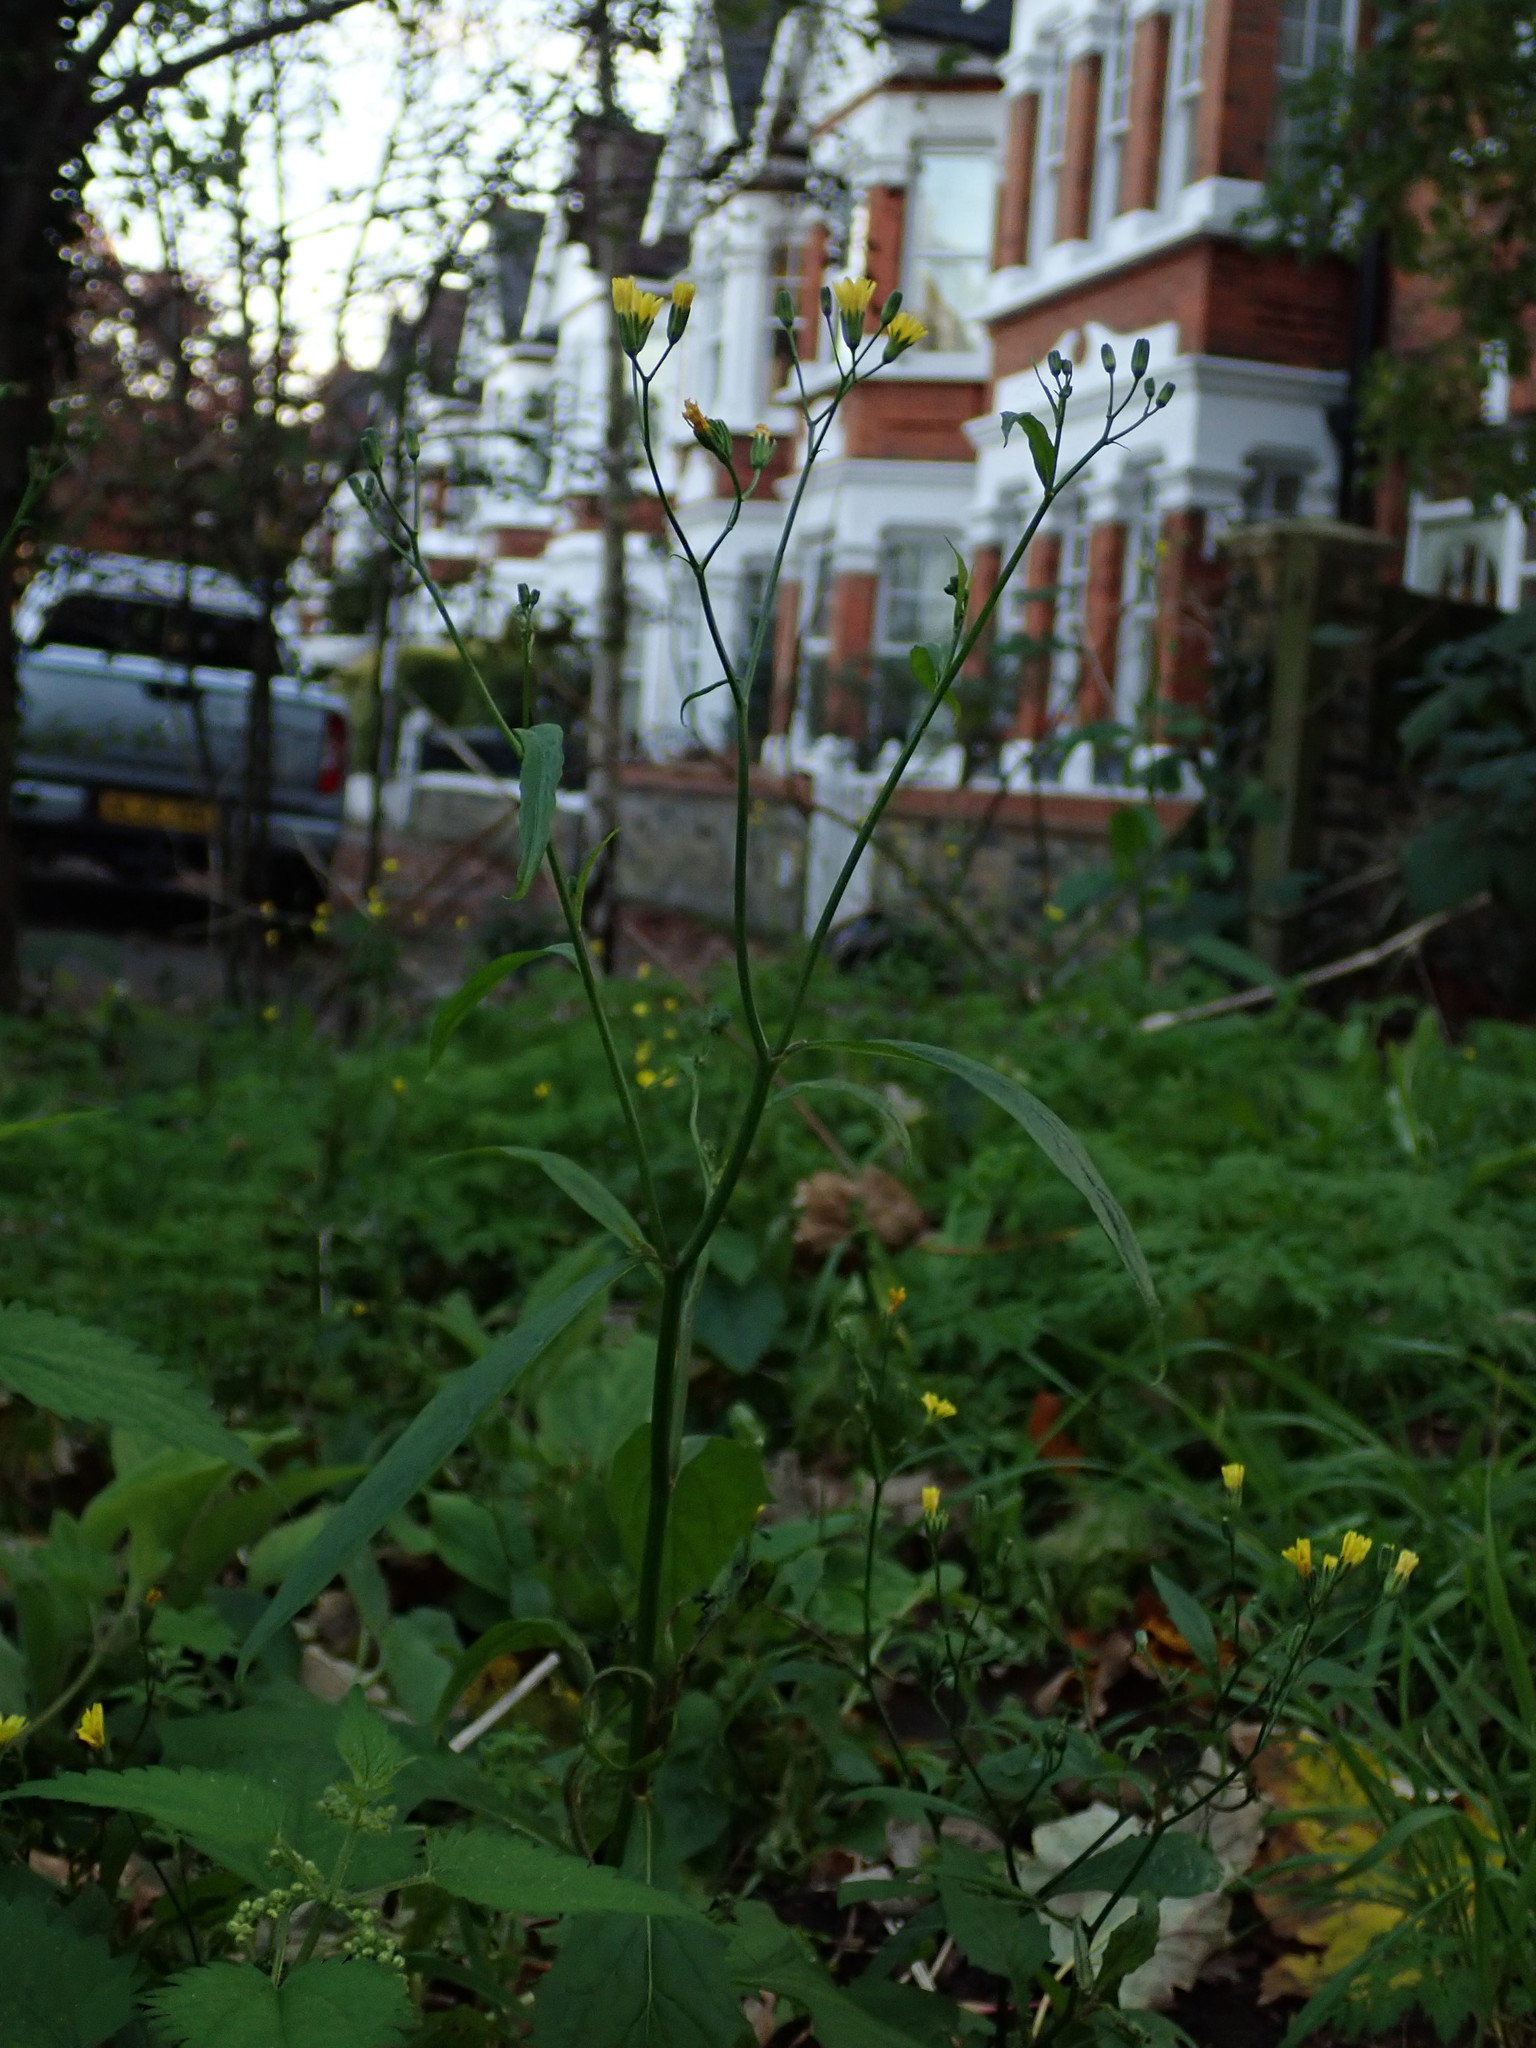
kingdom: Plantae
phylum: Tracheophyta
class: Magnoliopsida
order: Asterales
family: Asteraceae
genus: Lapsana
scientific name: Lapsana communis
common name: Nipplewort
